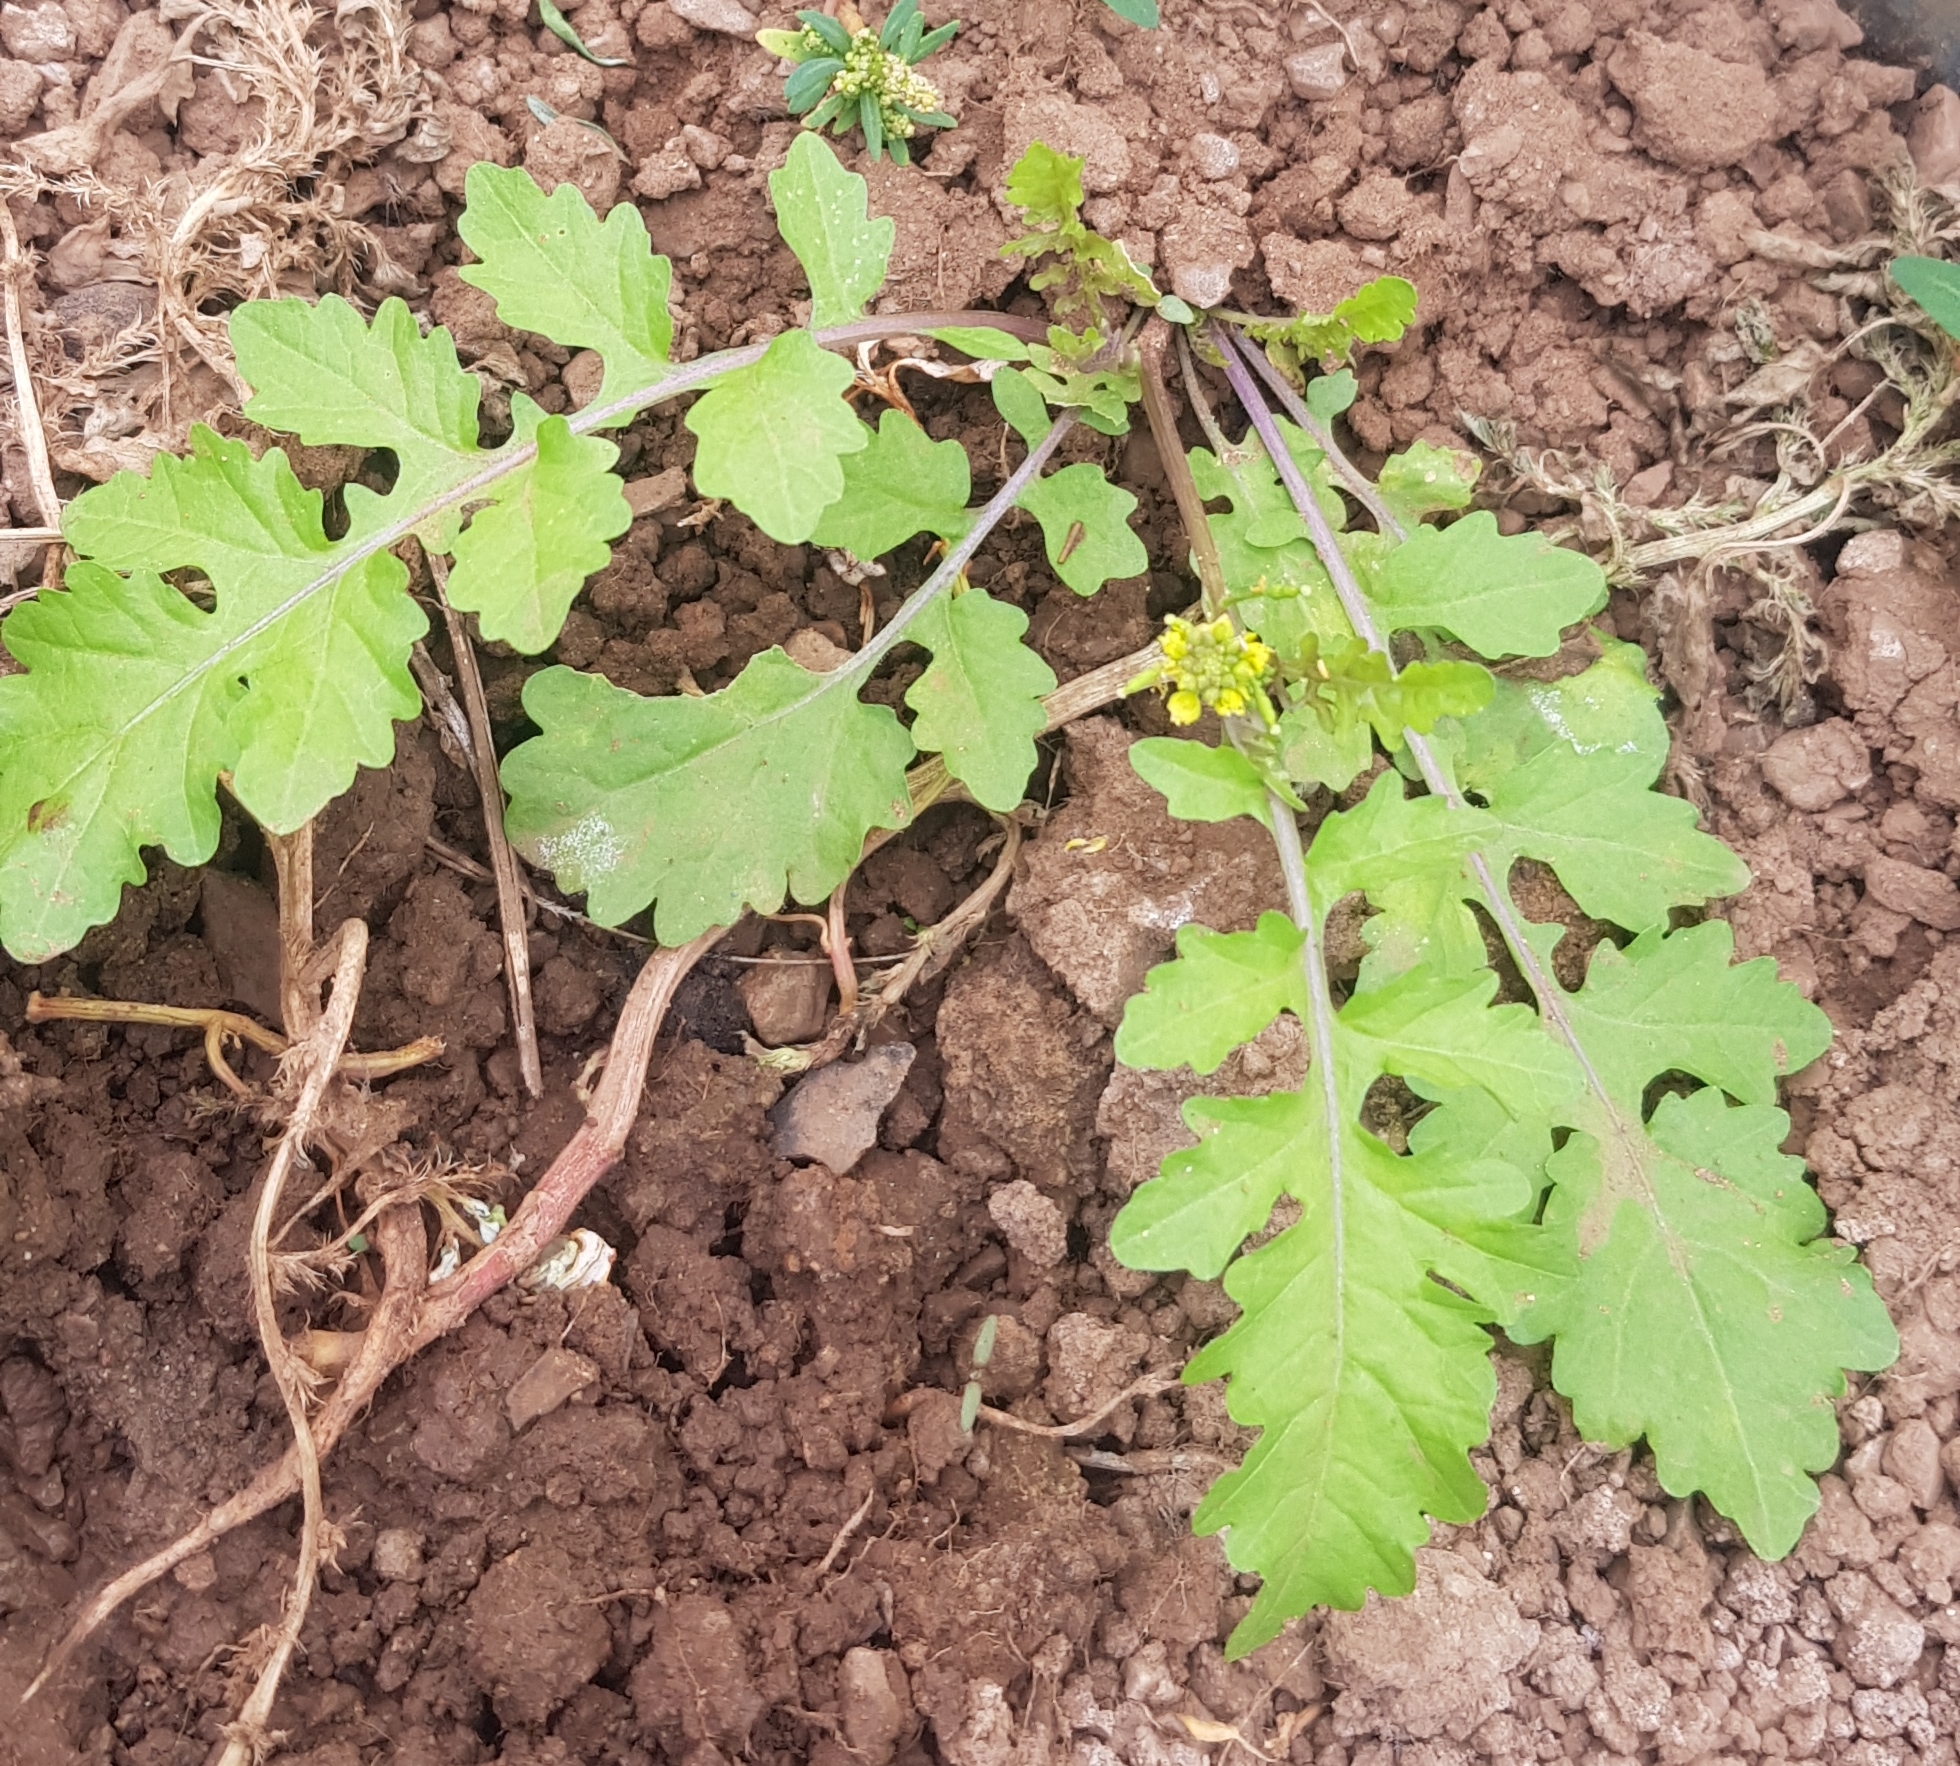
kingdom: Plantae
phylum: Tracheophyta
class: Magnoliopsida
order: Brassicales
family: Brassicaceae
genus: Rorippa
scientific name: Rorippa palustris
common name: Marsh yellow-cress
